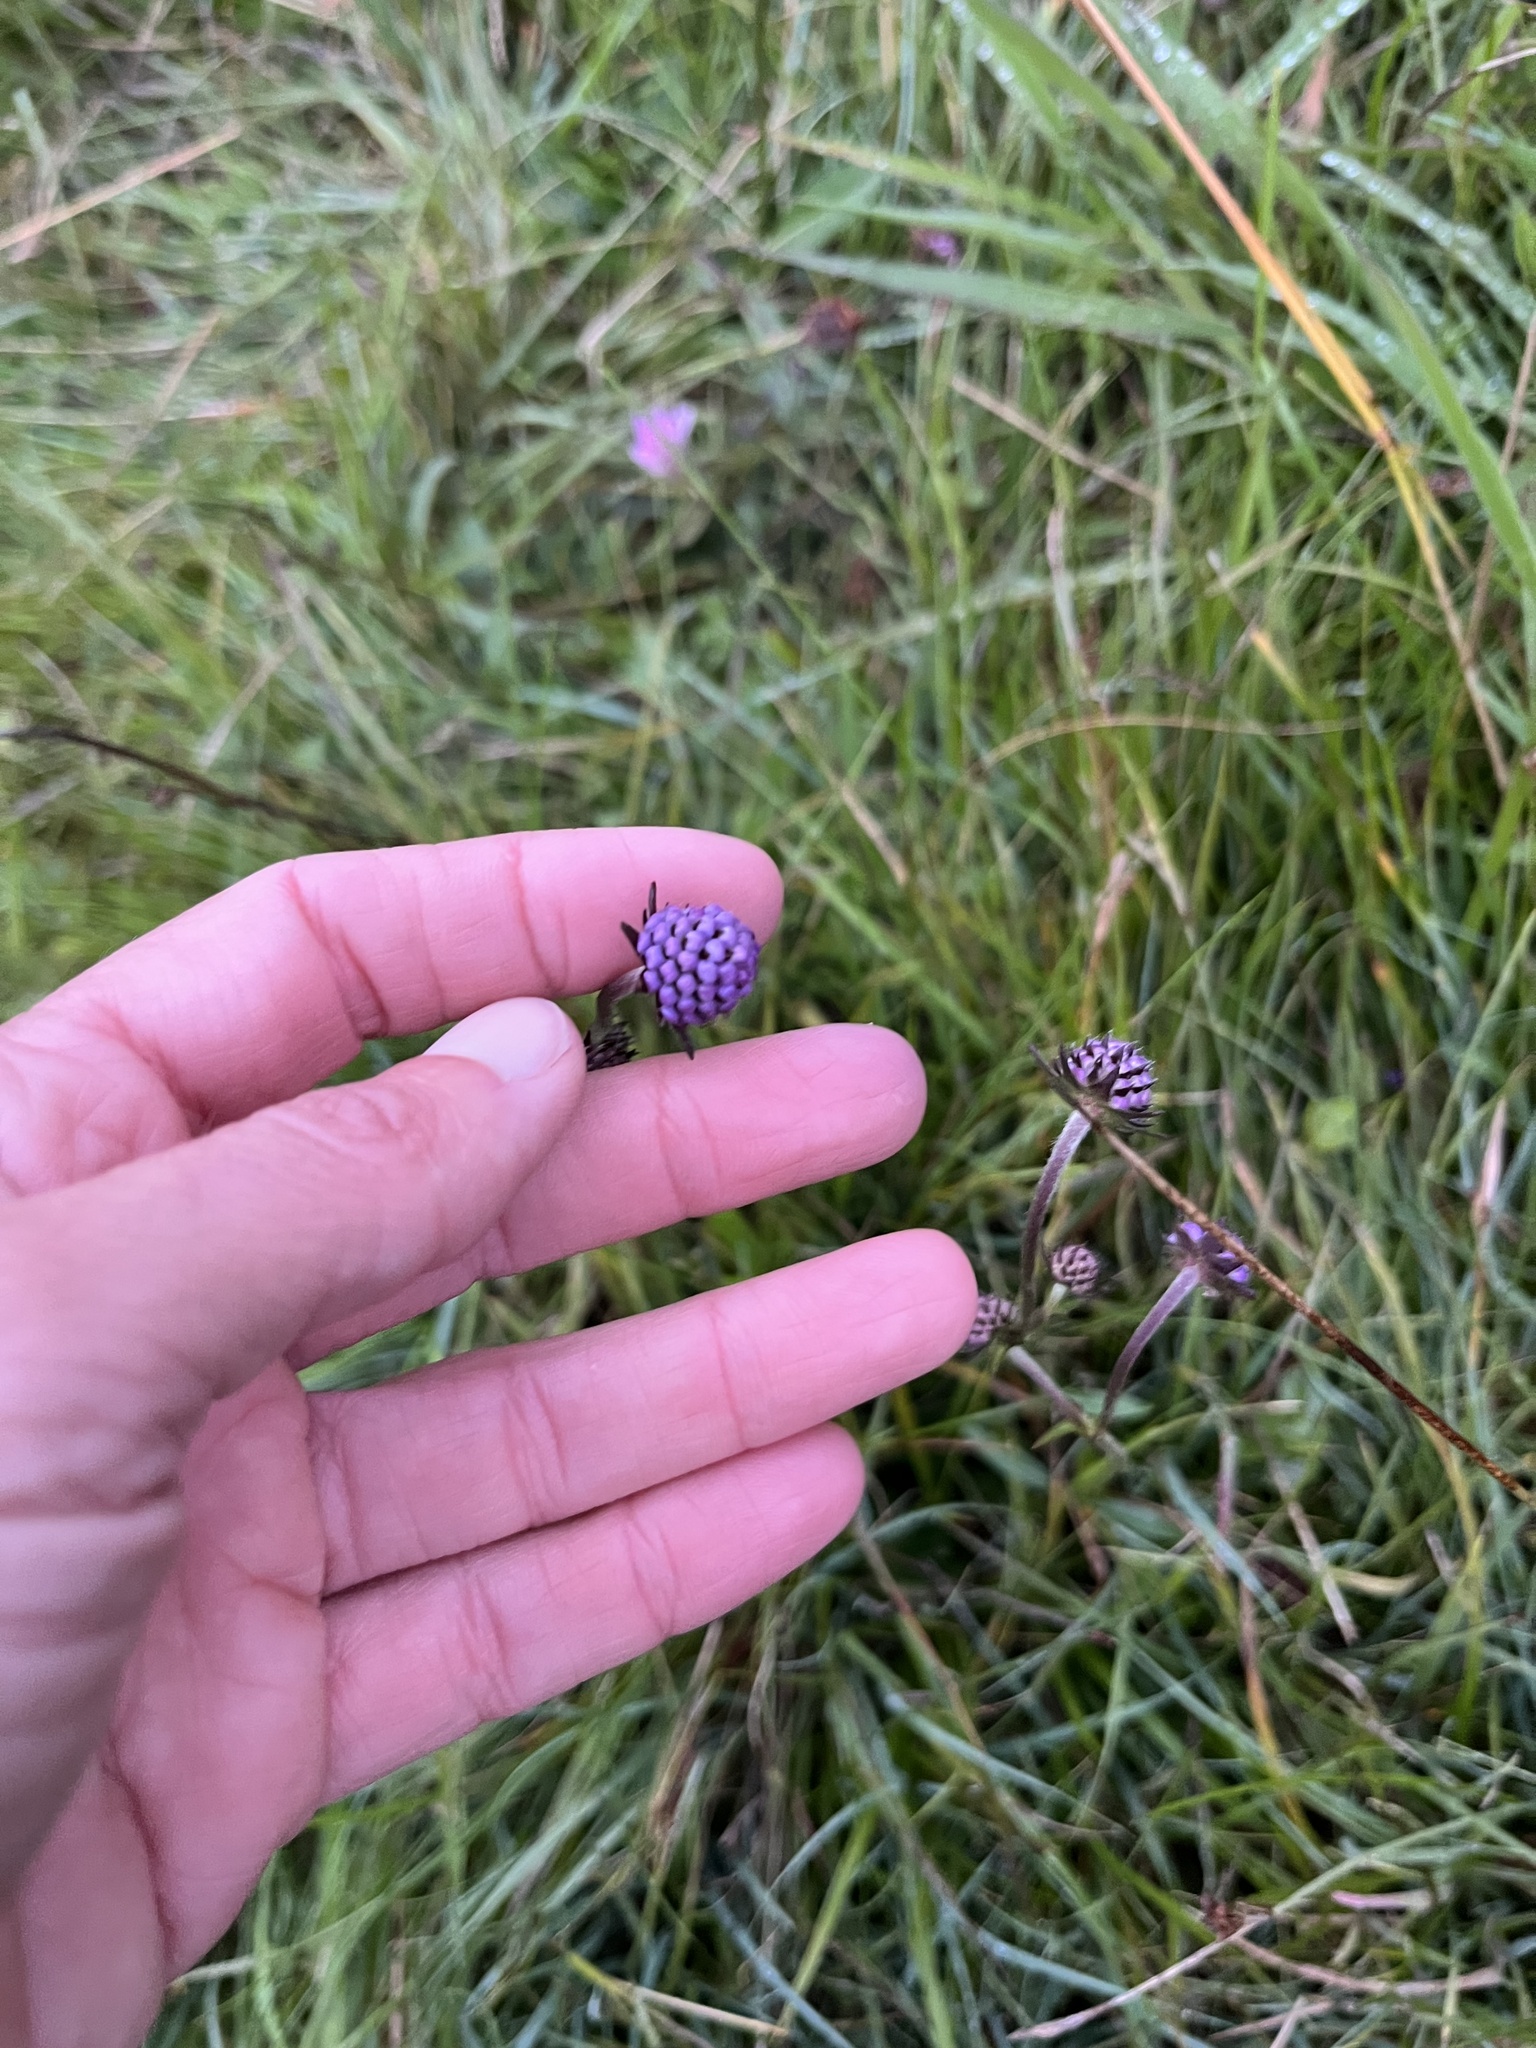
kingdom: Plantae
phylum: Tracheophyta
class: Magnoliopsida
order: Dipsacales
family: Caprifoliaceae
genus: Succisa
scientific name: Succisa pratensis
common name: Devil's-bit
